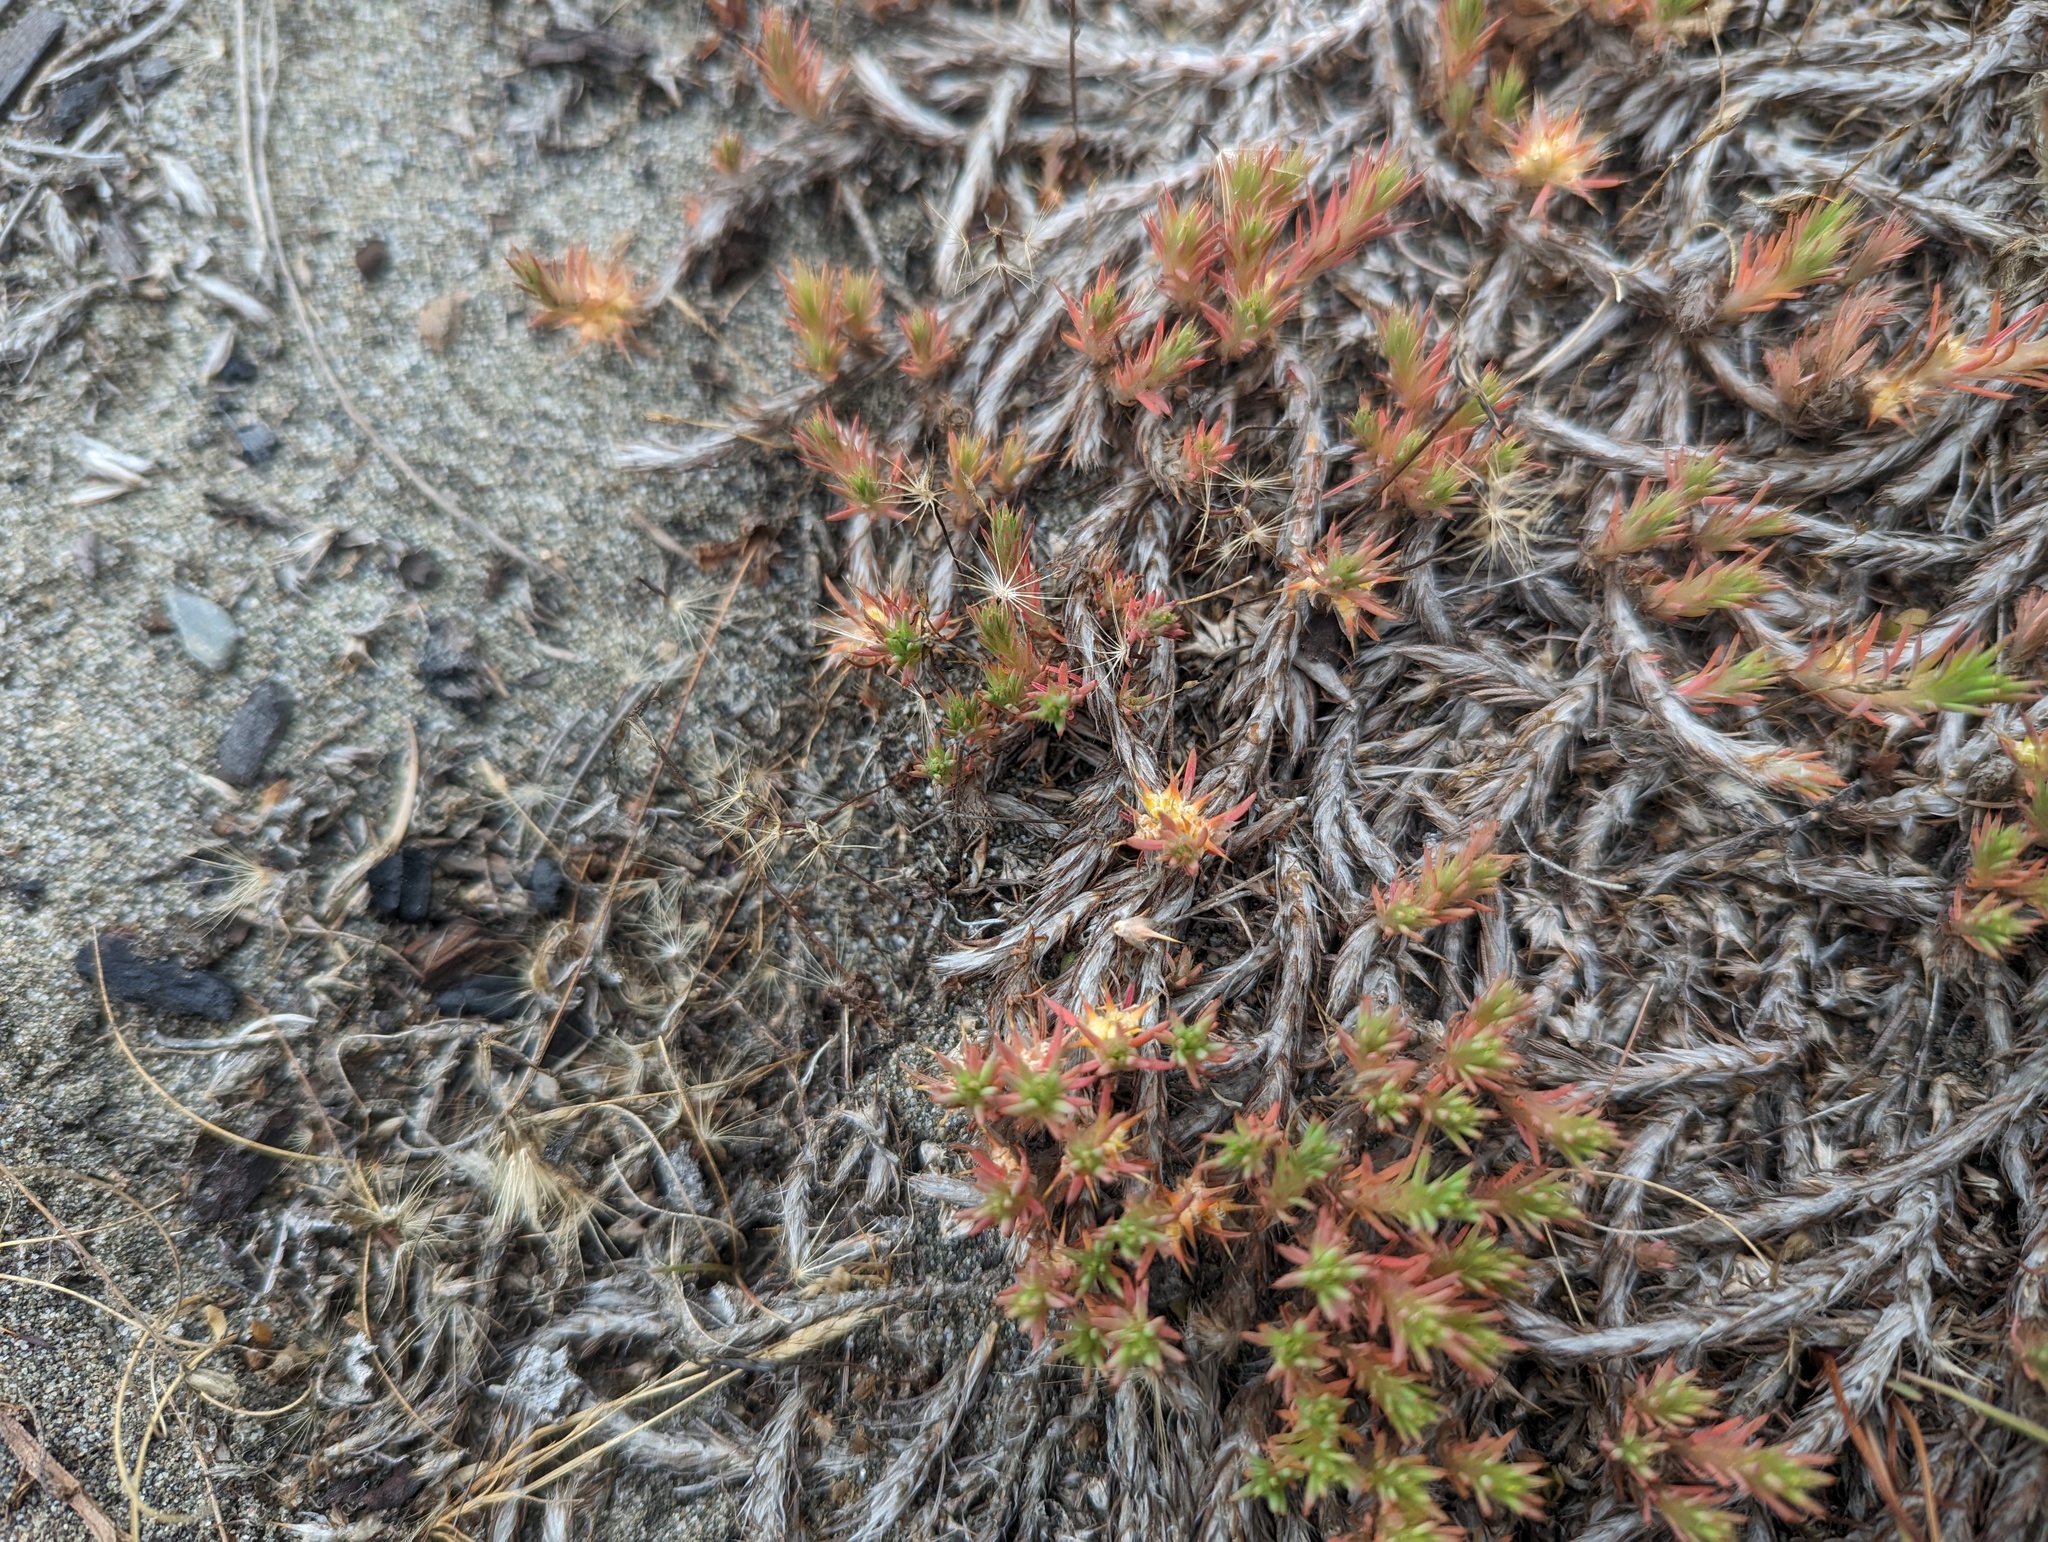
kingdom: Plantae
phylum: Tracheophyta
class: Magnoliopsida
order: Caryophyllales
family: Caryophyllaceae
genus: Cardionema
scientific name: Cardionema ramosissima
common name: Sandcarpet
